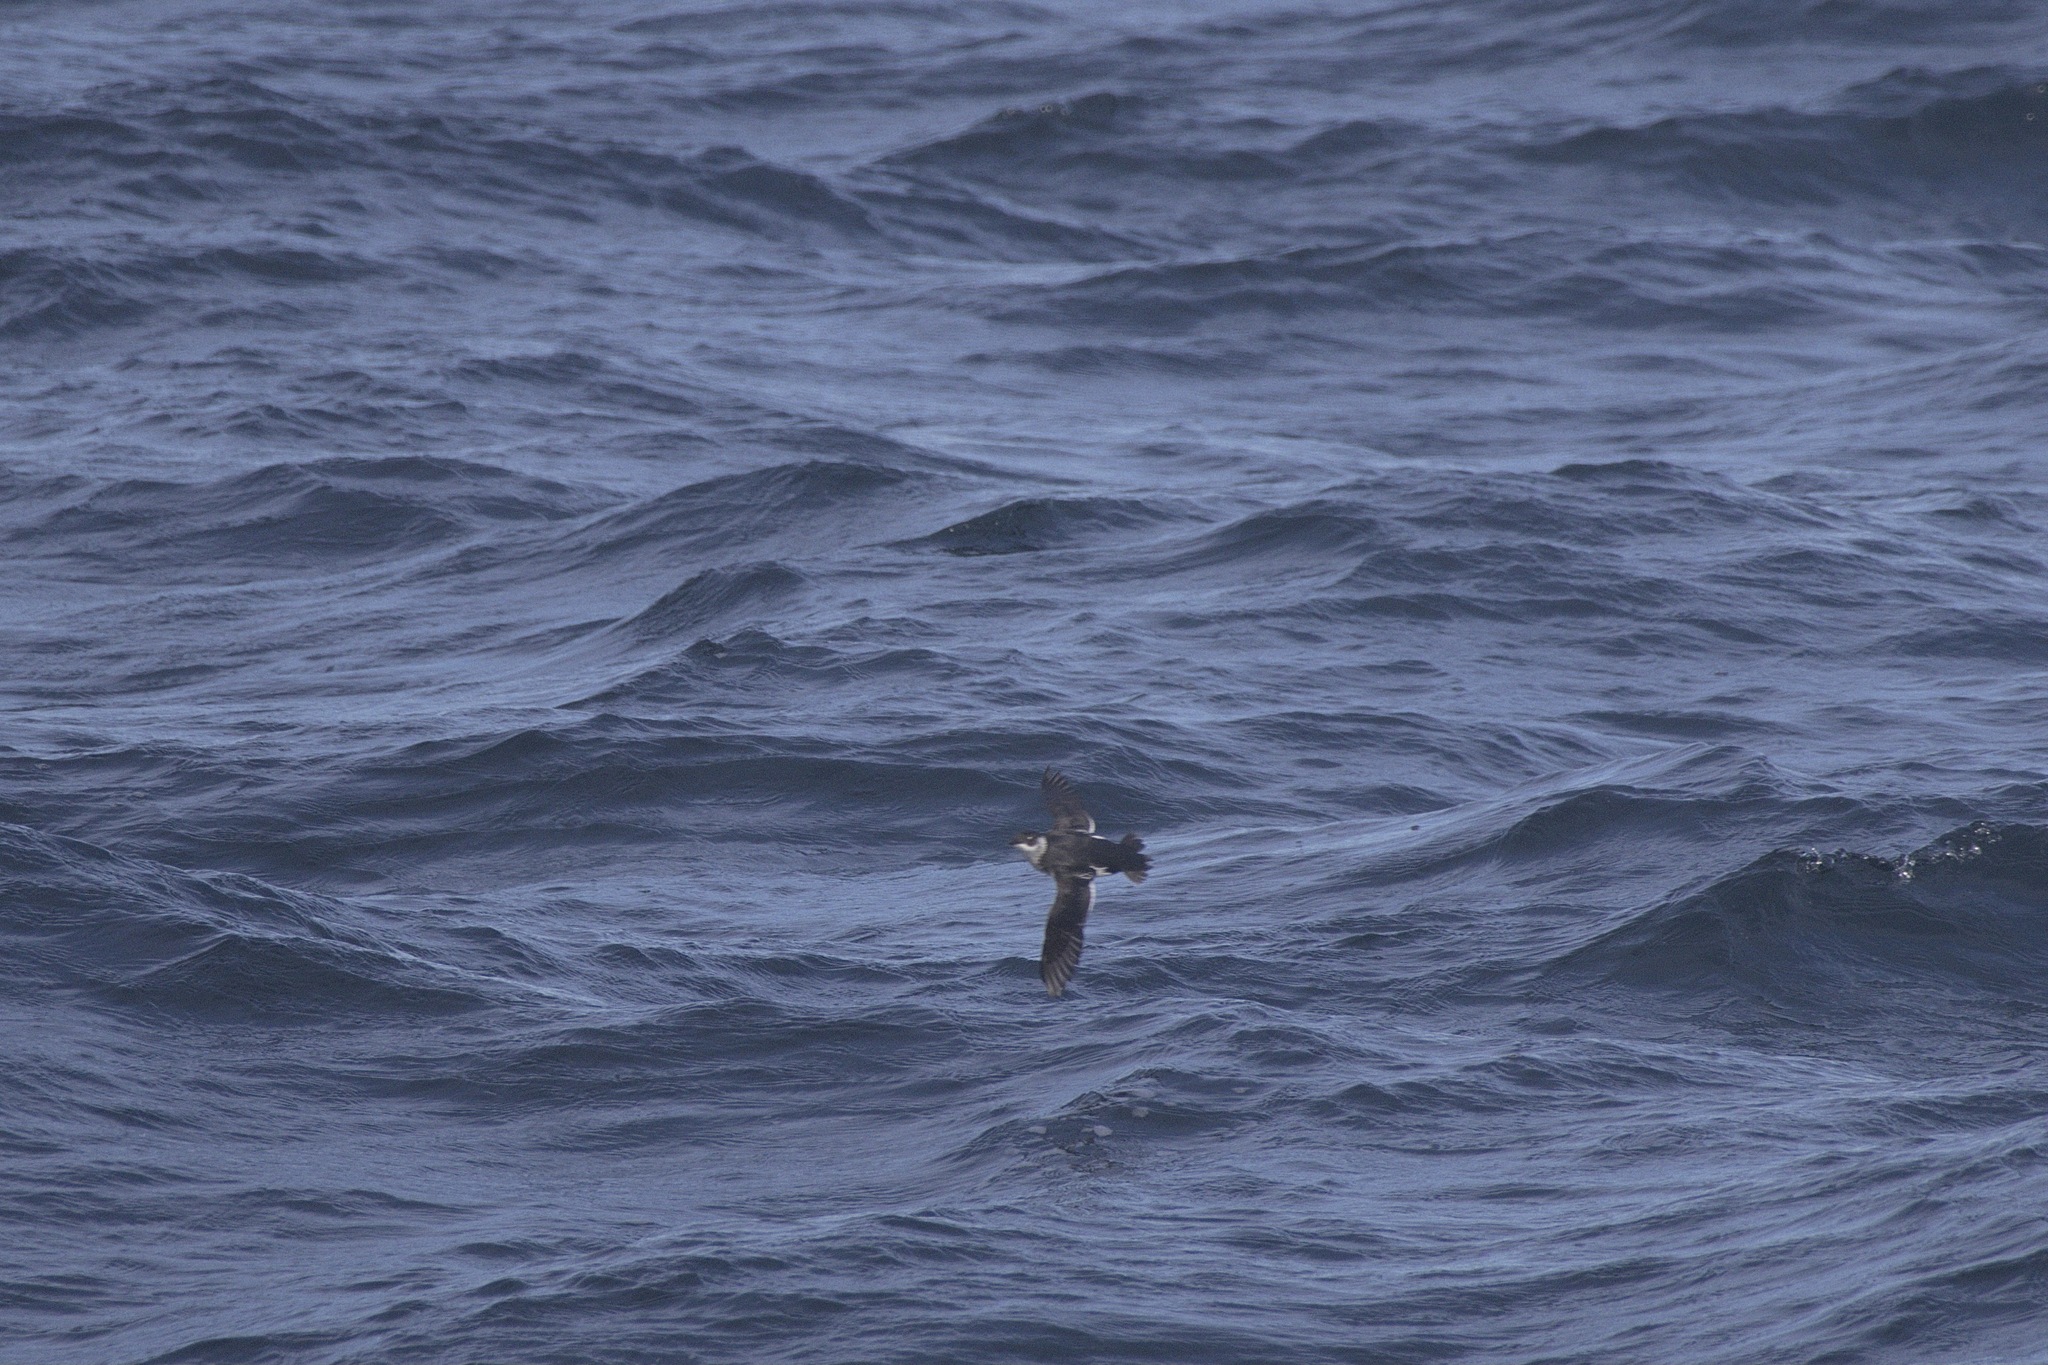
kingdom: Animalia
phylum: Chordata
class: Aves
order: Charadriiformes
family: Alcidae
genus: Alle
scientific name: Alle alle
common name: Little auk
